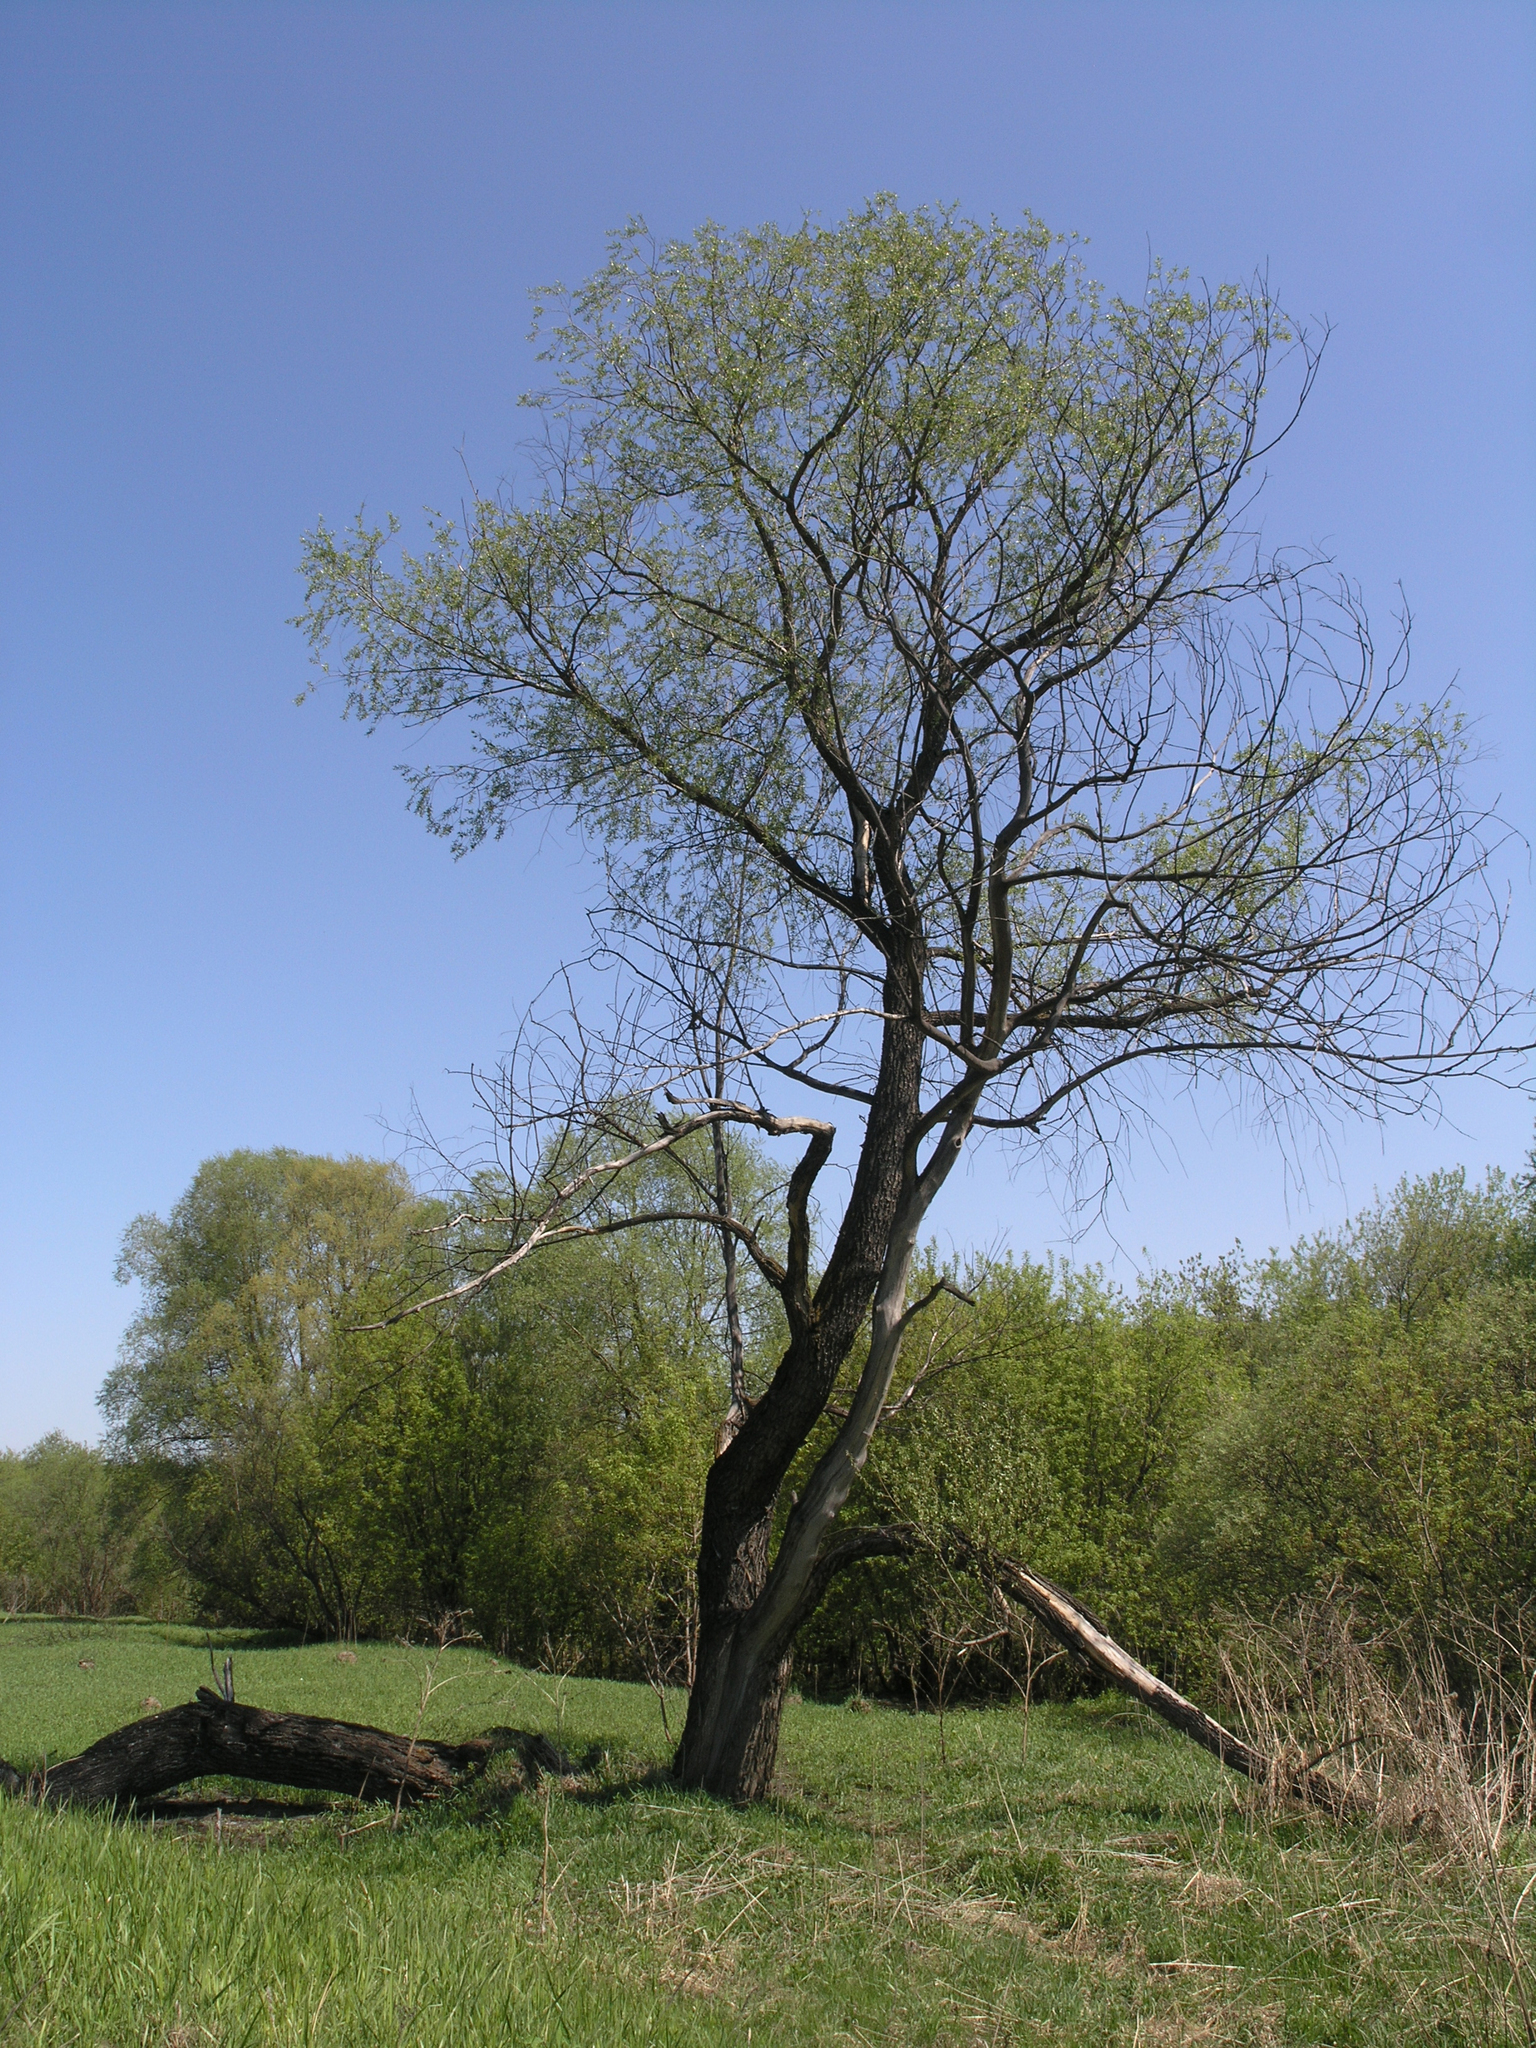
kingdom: Plantae
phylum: Tracheophyta
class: Magnoliopsida
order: Malpighiales
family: Salicaceae
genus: Salix
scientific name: Salix alba
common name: White willow
